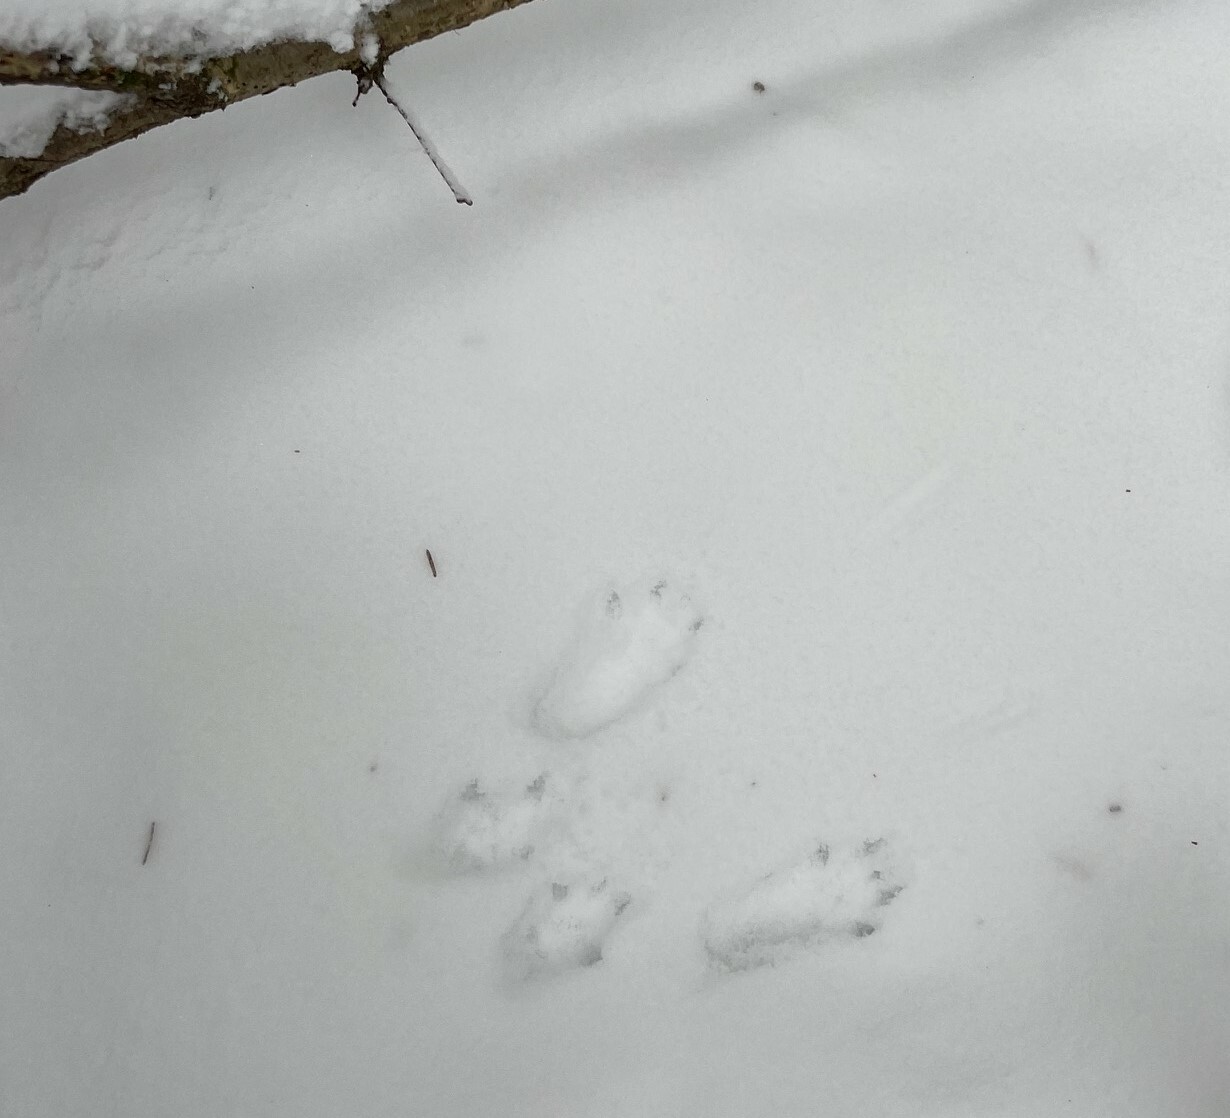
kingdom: Animalia
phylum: Chordata
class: Mammalia
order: Rodentia
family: Sciuridae
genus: Sciurus
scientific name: Sciurus vulgaris
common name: Eurasian red squirrel
